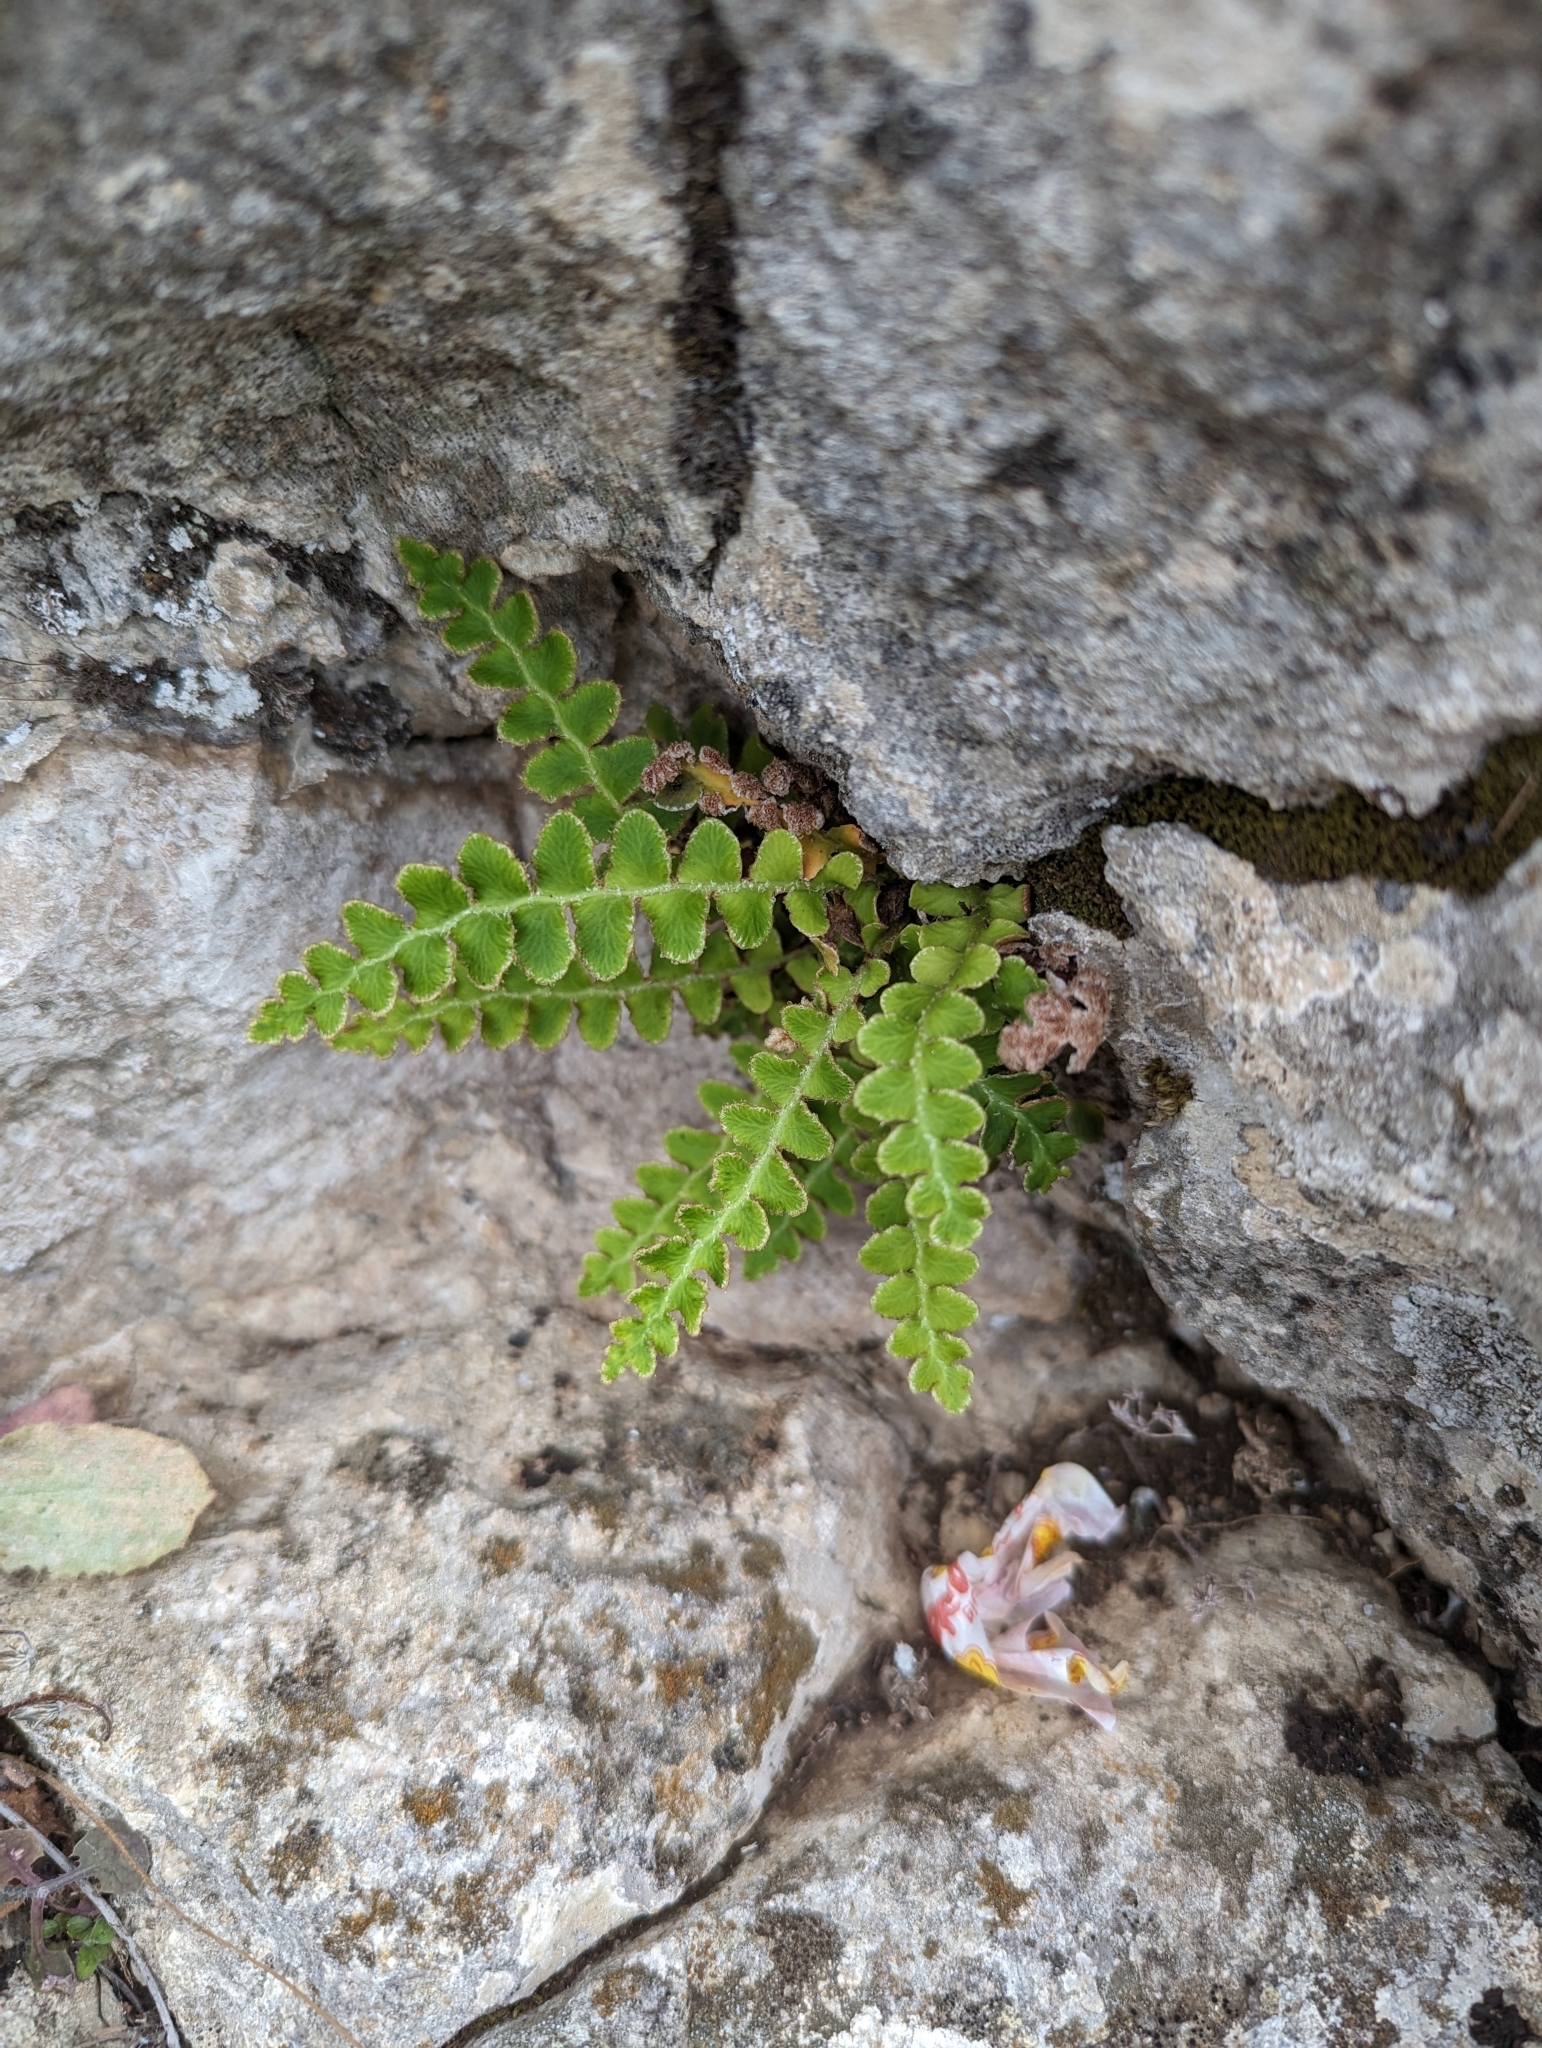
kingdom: Plantae
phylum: Tracheophyta
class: Polypodiopsida
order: Polypodiales
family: Aspleniaceae
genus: Asplenium
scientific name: Asplenium ceterach
